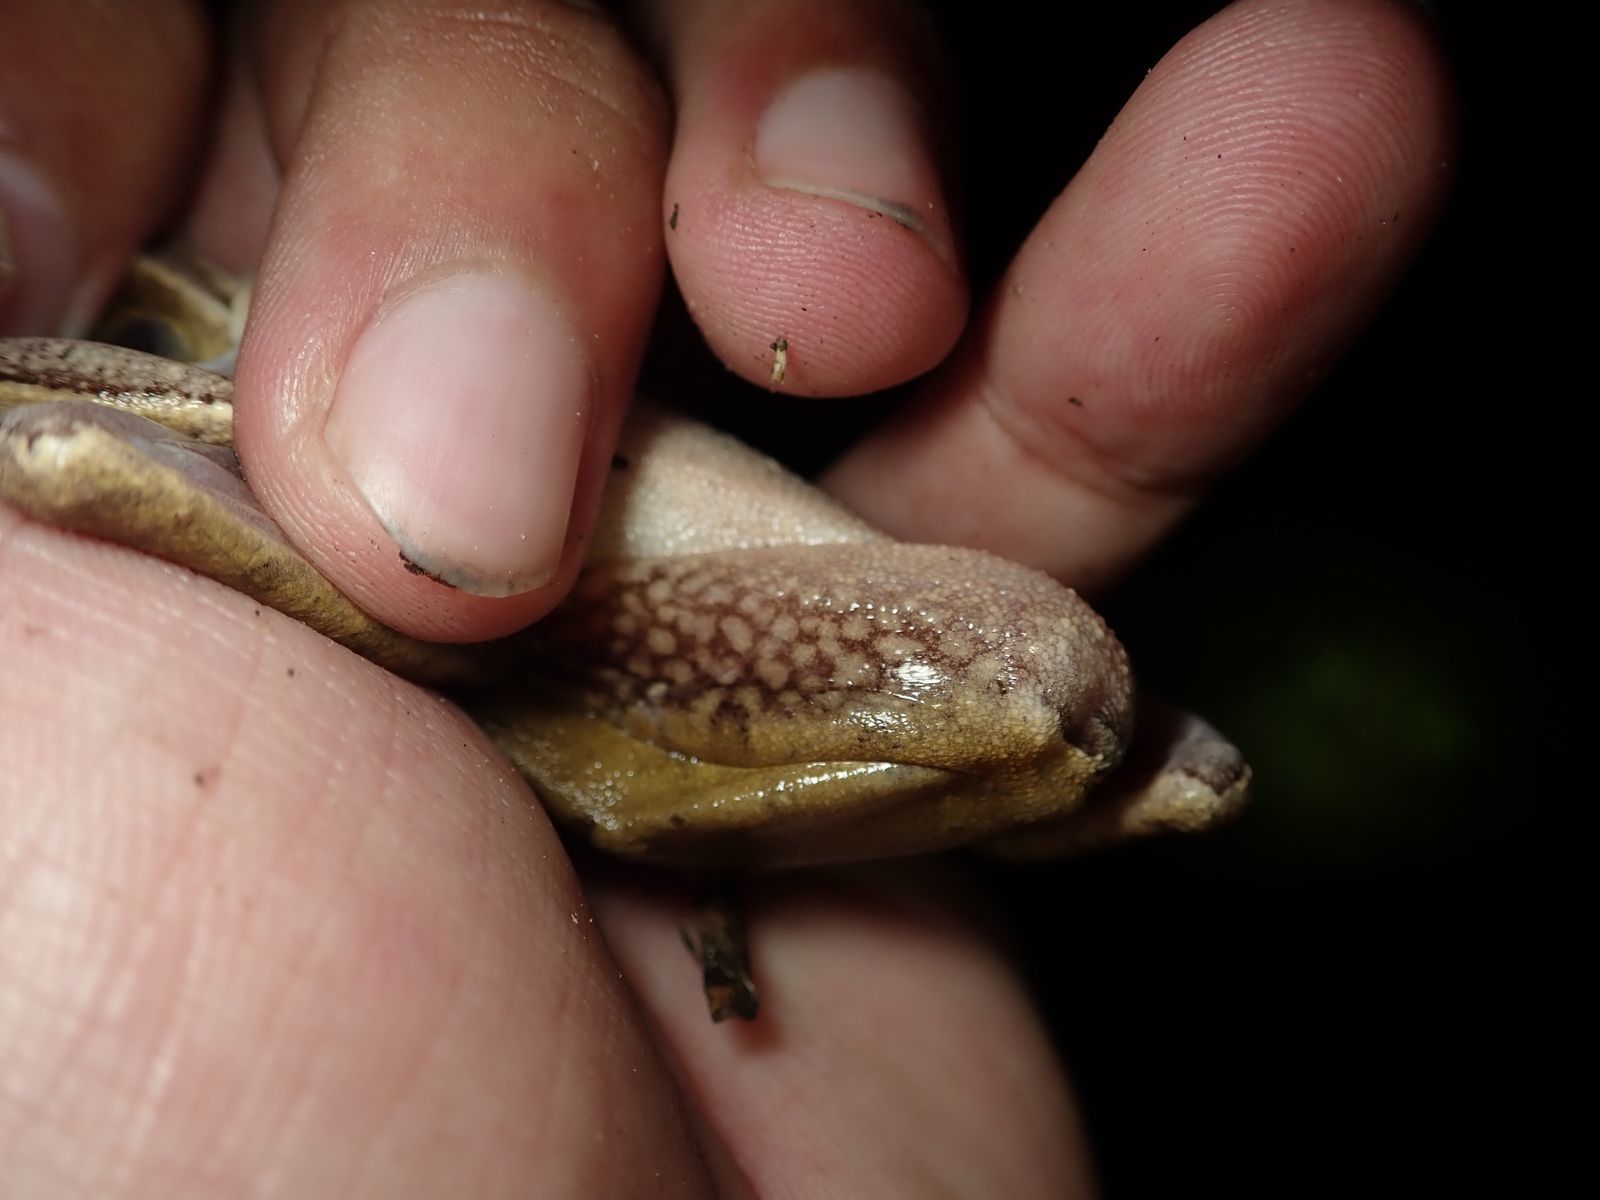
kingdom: Animalia
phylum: Chordata
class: Amphibia
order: Anura
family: Rhacophoridae
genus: Polypedates
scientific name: Polypedates megacephalus
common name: Hong kong whipping frog
